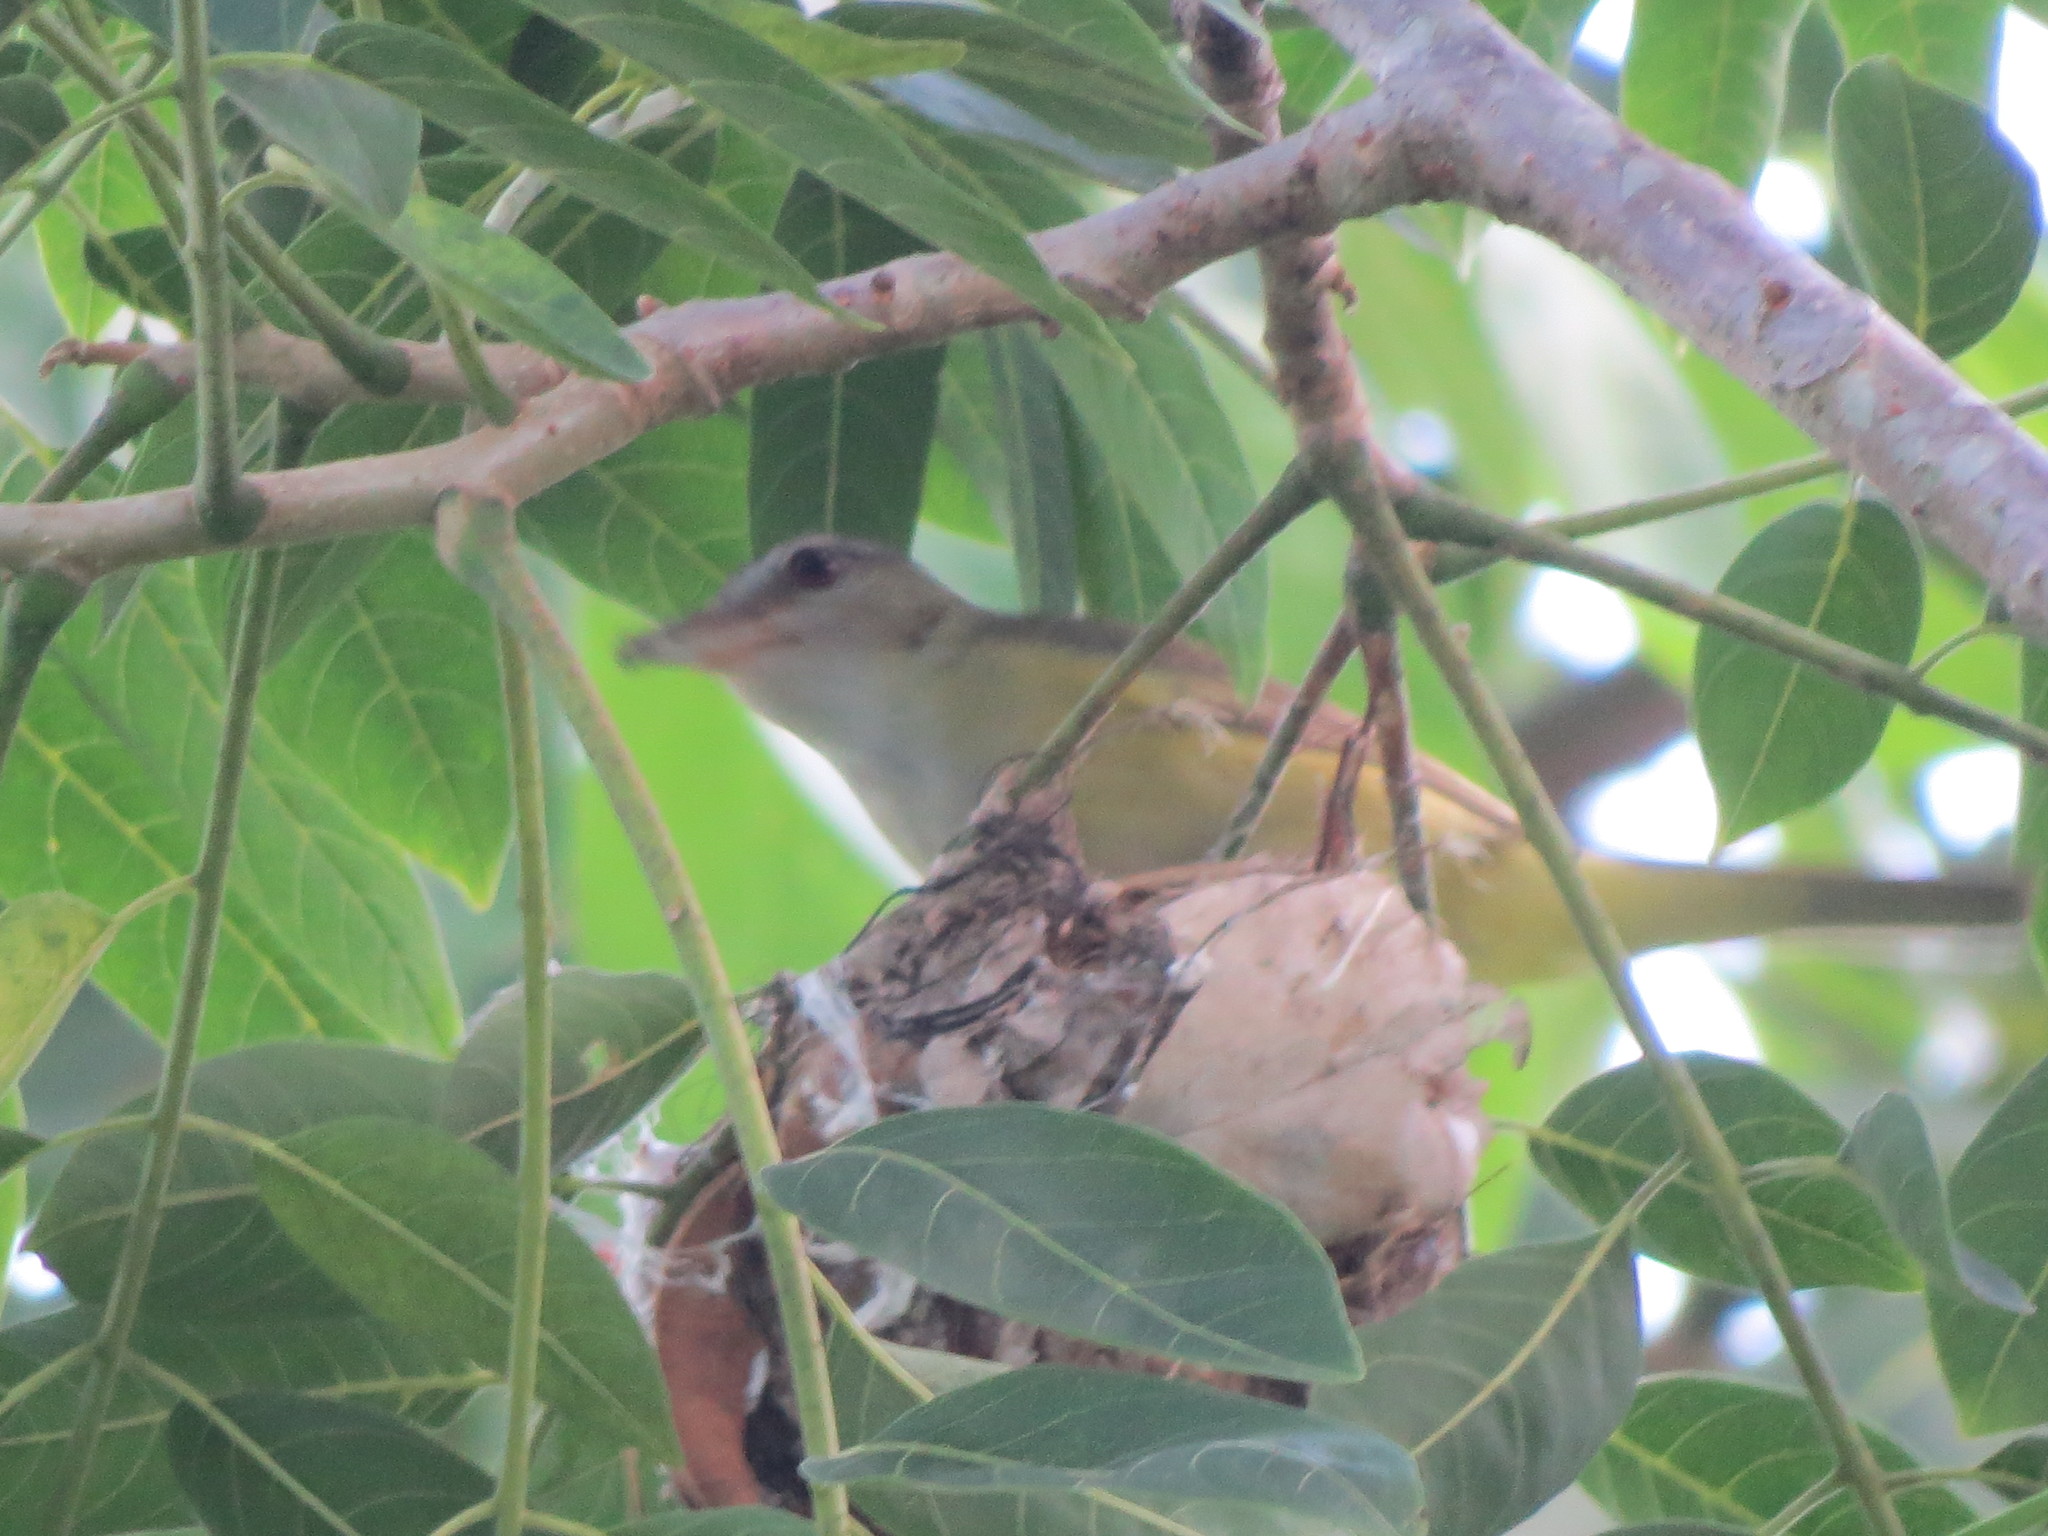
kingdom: Animalia
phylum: Chordata
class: Aves
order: Passeriformes
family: Vireonidae
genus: Vireo
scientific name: Vireo flavoviridis
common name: Yellow-green vireo
